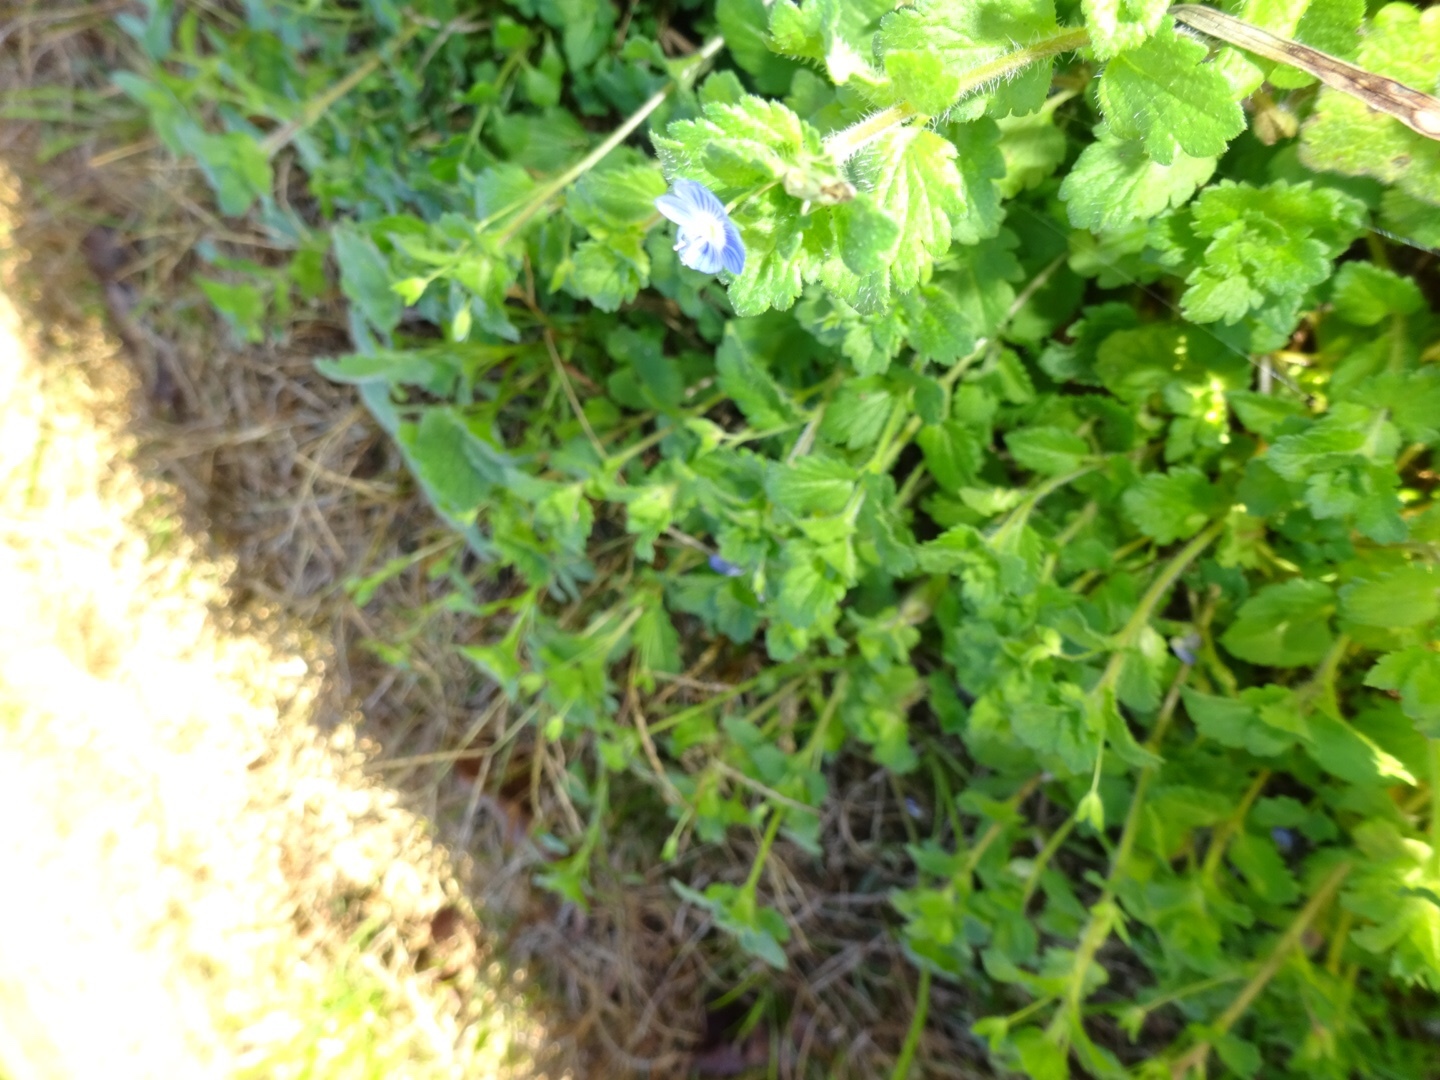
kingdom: Plantae
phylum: Tracheophyta
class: Magnoliopsida
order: Lamiales
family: Plantaginaceae
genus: Veronica
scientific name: Veronica persica
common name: Common field-speedwell
